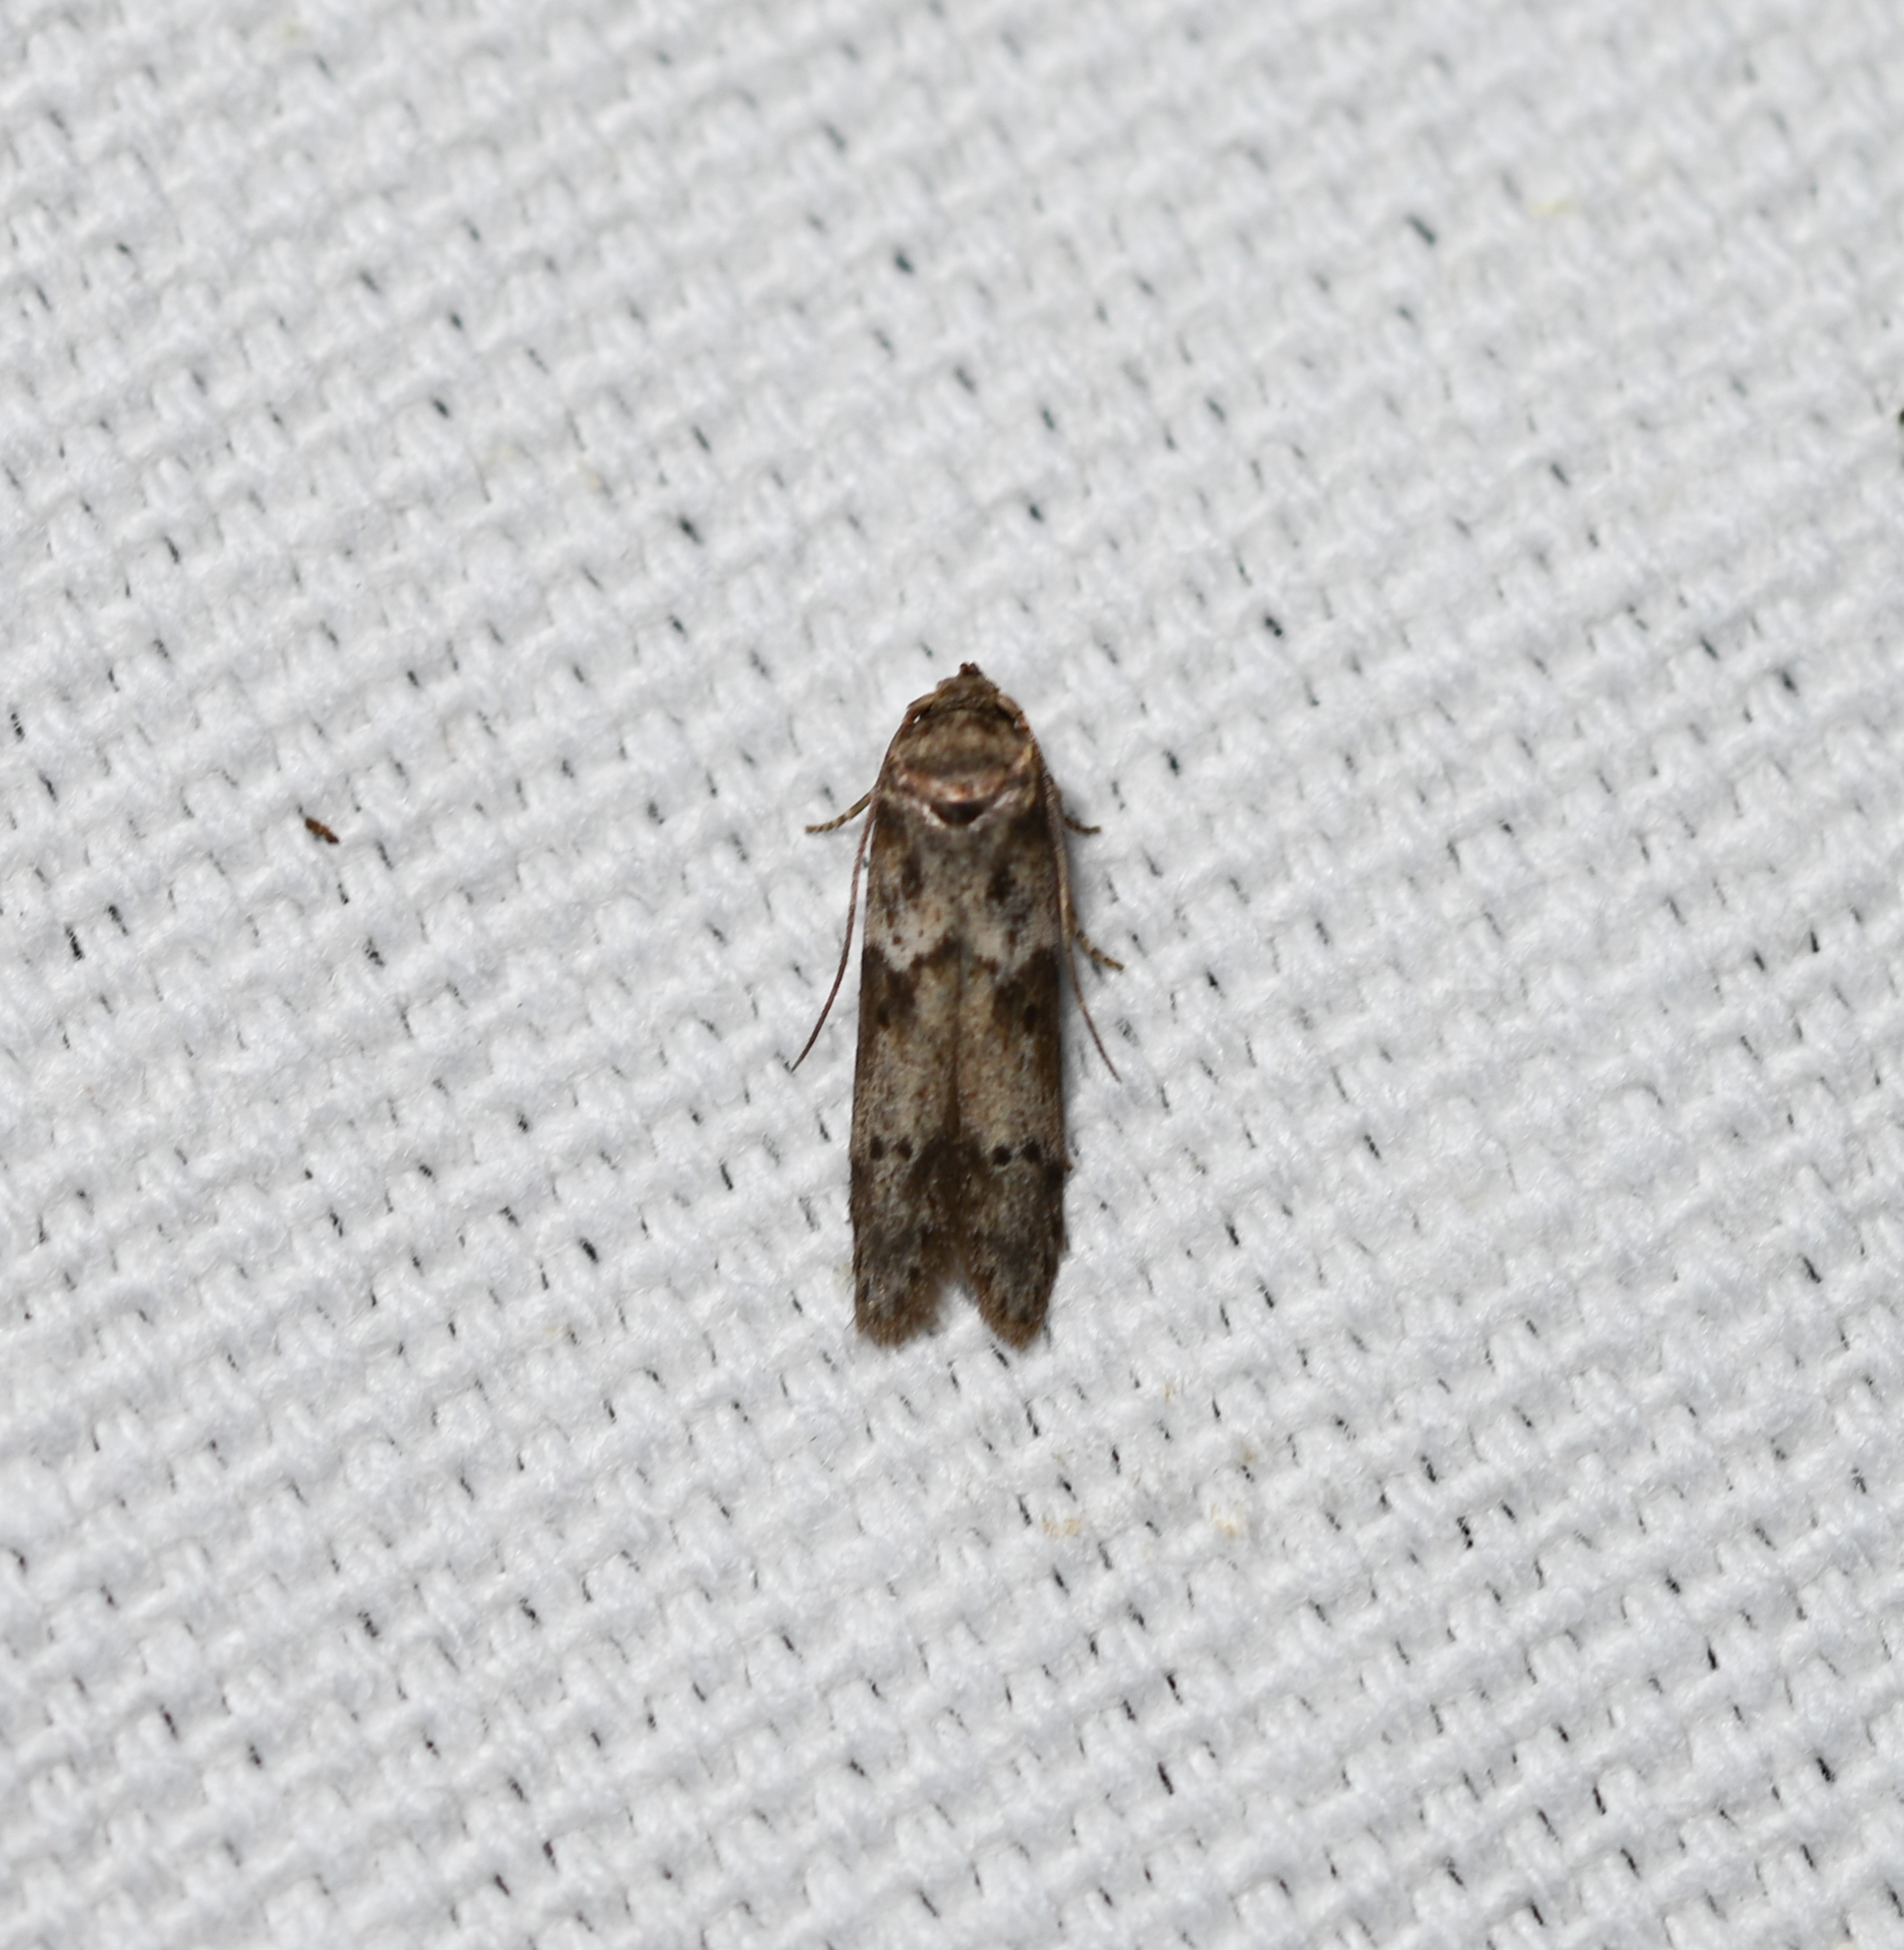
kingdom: Animalia
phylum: Arthropoda
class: Insecta
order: Lepidoptera
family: Blastobasidae
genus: Blastobasis
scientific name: Blastobasis glandulella
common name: Acorn moth
